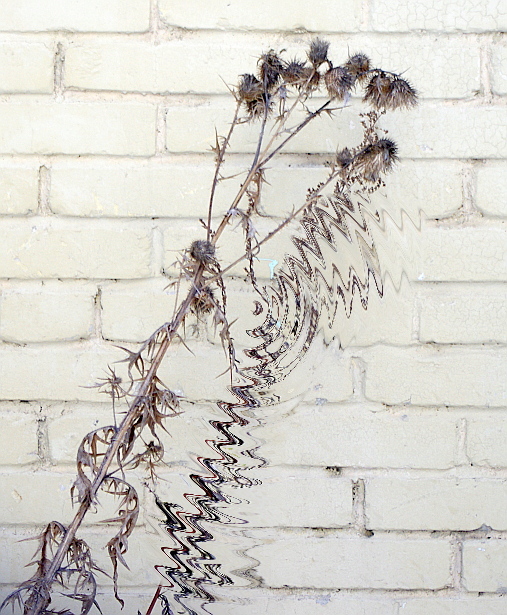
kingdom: Plantae
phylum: Tracheophyta
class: Magnoliopsida
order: Asterales
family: Asteraceae
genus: Cirsium
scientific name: Cirsium vulgare
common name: Bull thistle
